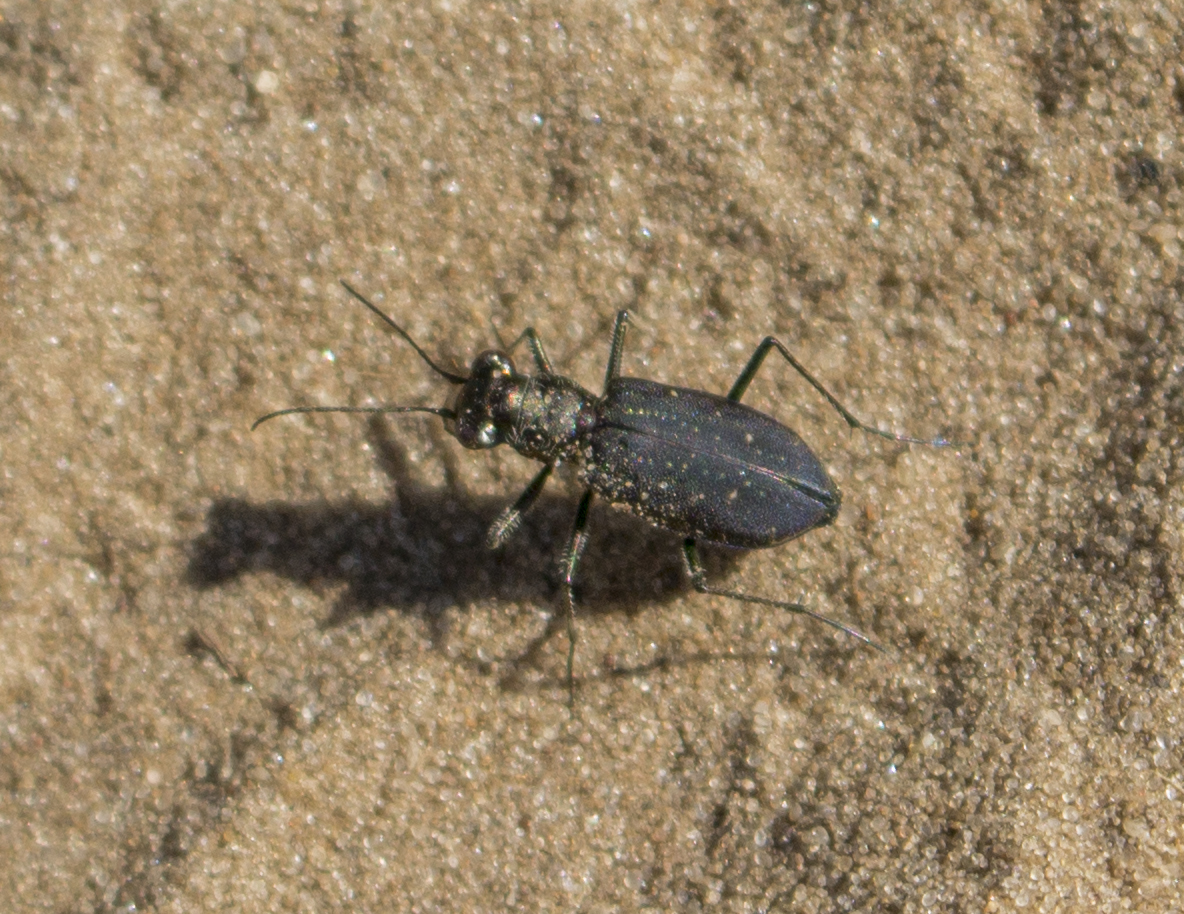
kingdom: Animalia
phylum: Arthropoda
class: Insecta
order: Coleoptera
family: Carabidae
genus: Cicindela
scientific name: Cicindela punctulata
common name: Punctured tiger beetle
